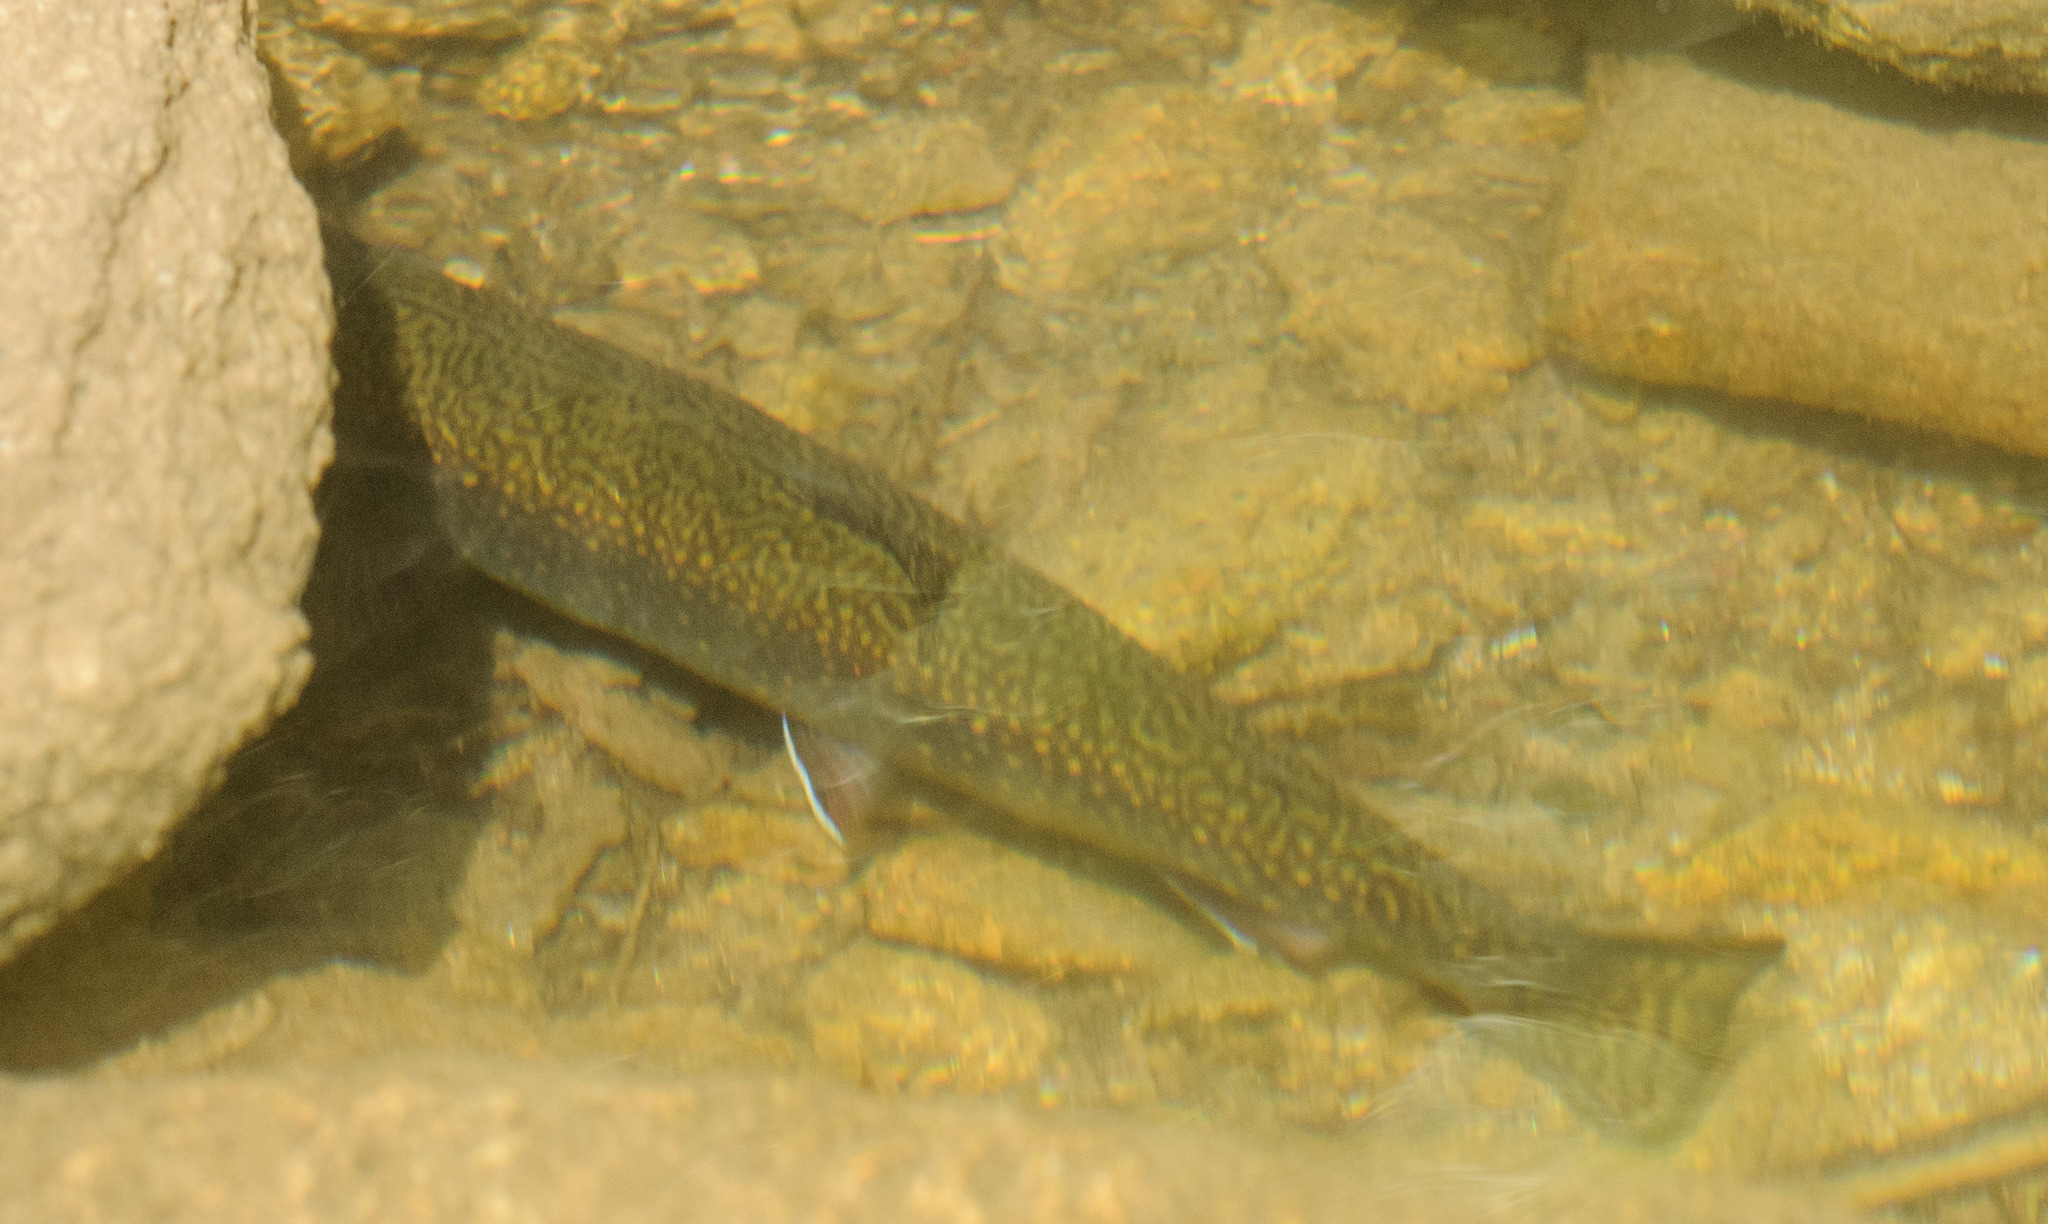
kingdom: Animalia
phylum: Chordata
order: Salmoniformes
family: Salmonidae
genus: Salvelinus
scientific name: Salvelinus fontinalis
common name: Brook trout
